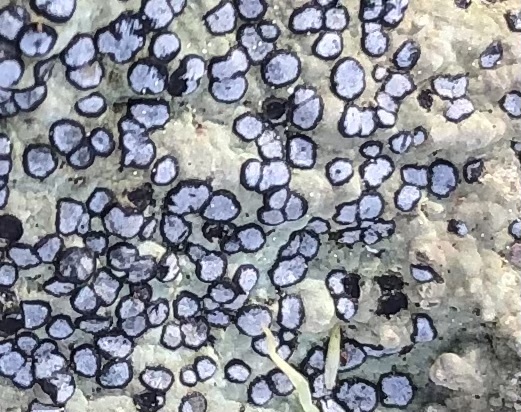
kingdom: Fungi
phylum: Ascomycota
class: Lecanoromycetes
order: Lecideales
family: Lecideaceae
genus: Porpidia
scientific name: Porpidia albocaerulescens
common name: Smokey-eyed boulder lichen
